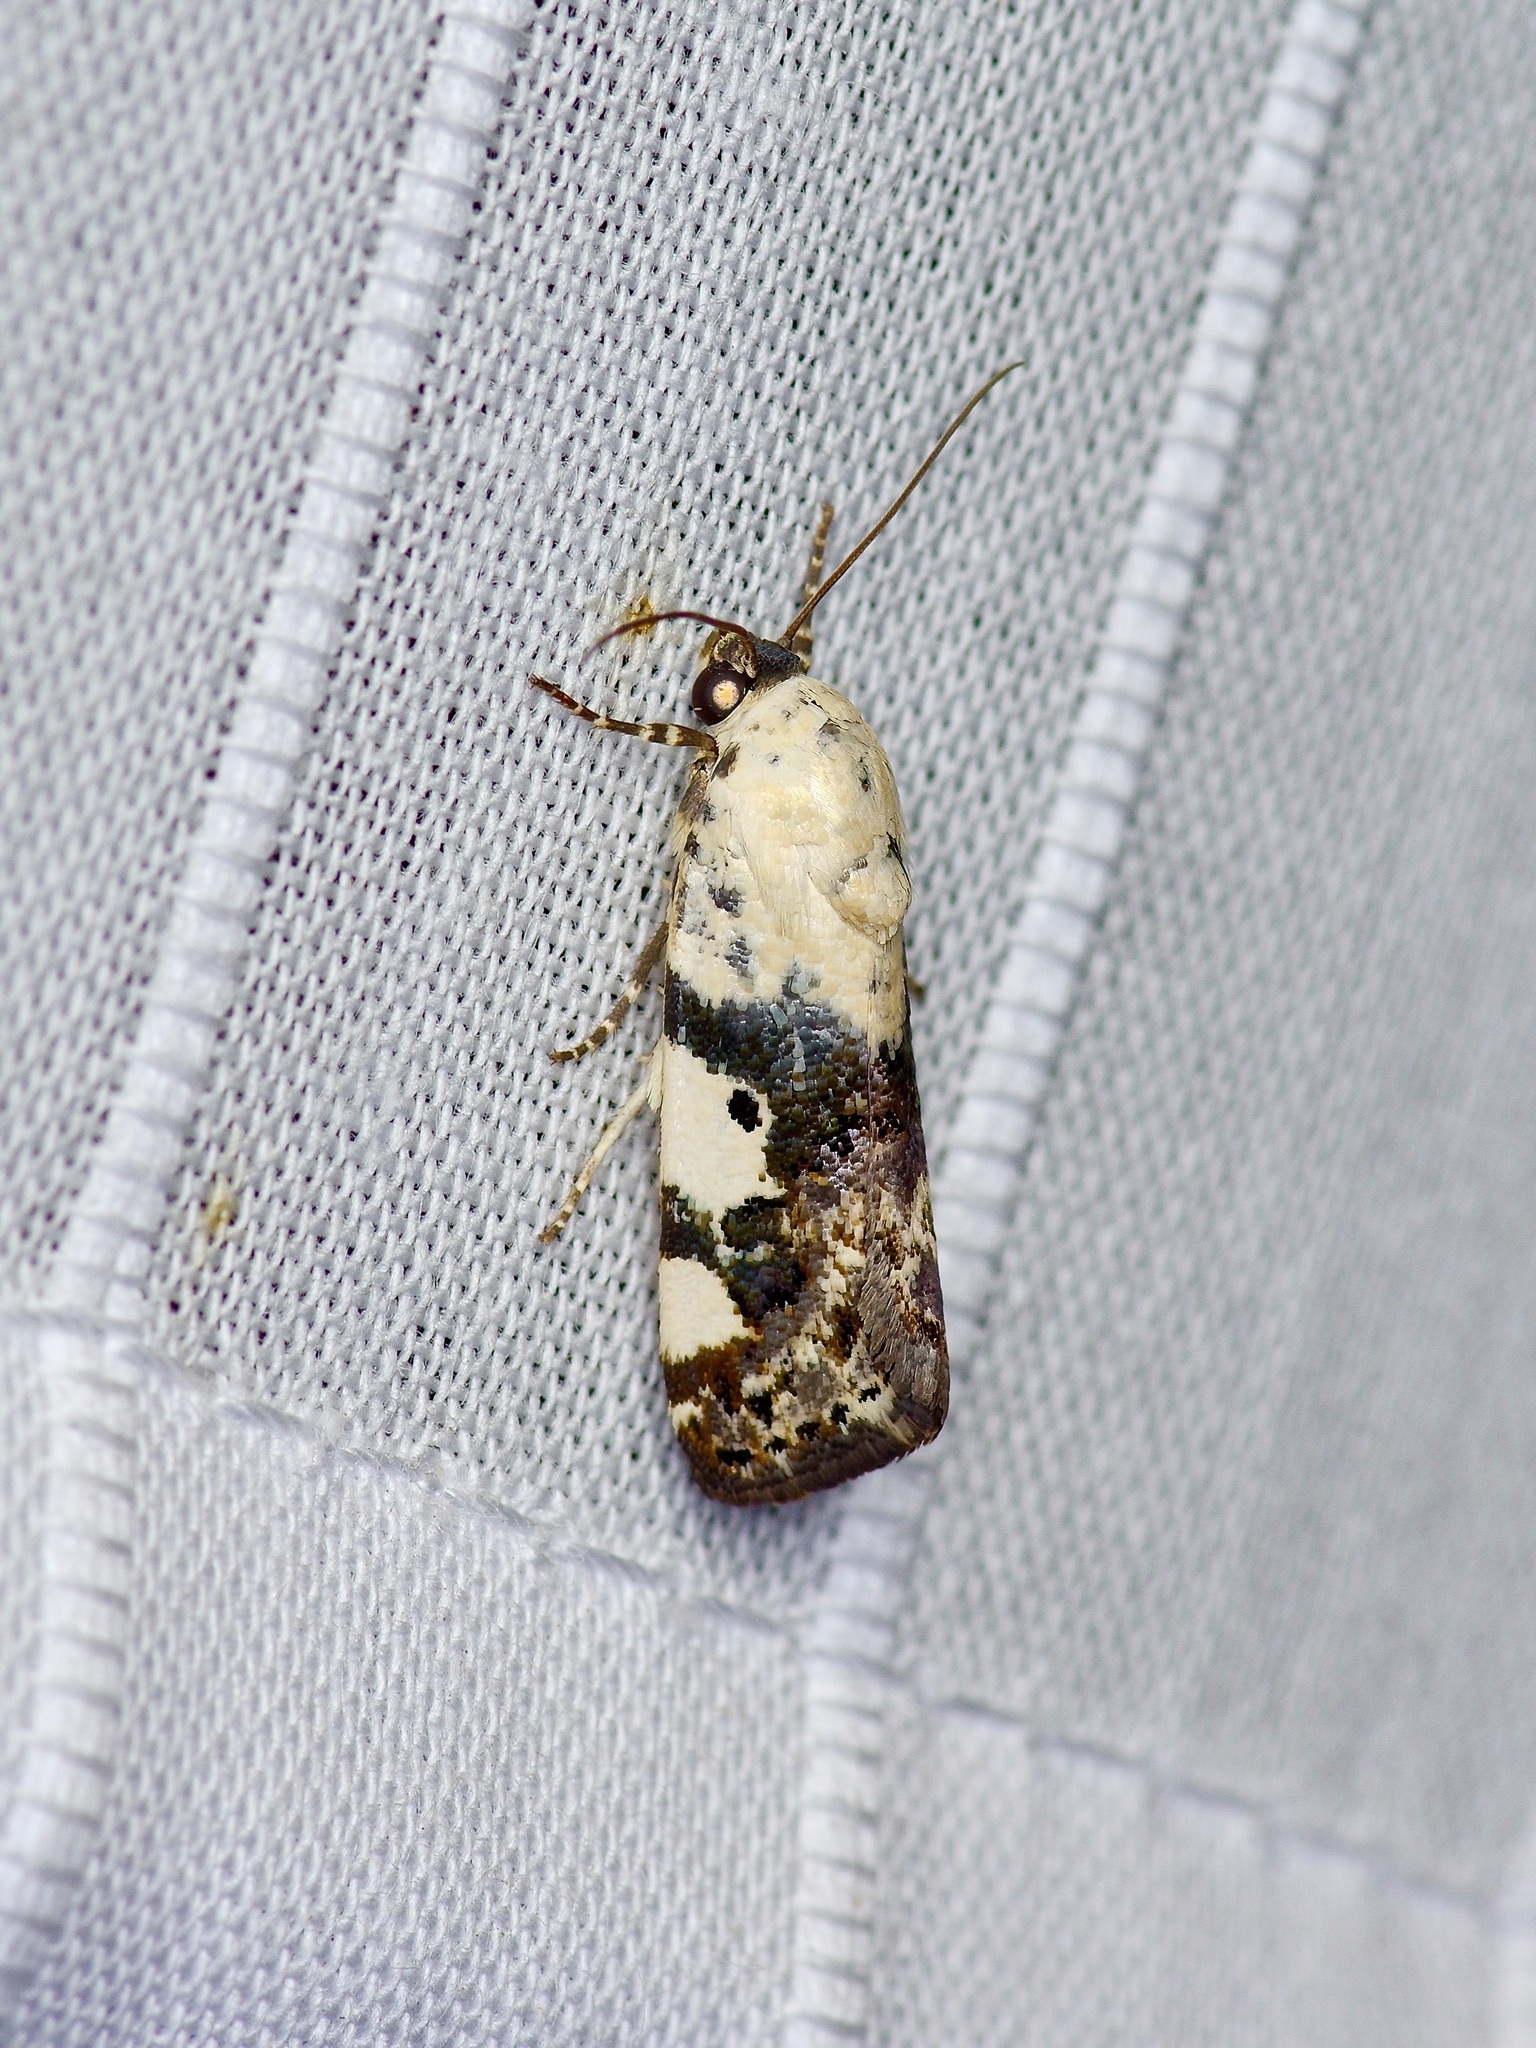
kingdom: Animalia
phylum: Arthropoda
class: Insecta
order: Lepidoptera
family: Noctuidae
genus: Acontia
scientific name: Acontia aprica
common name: Nun
